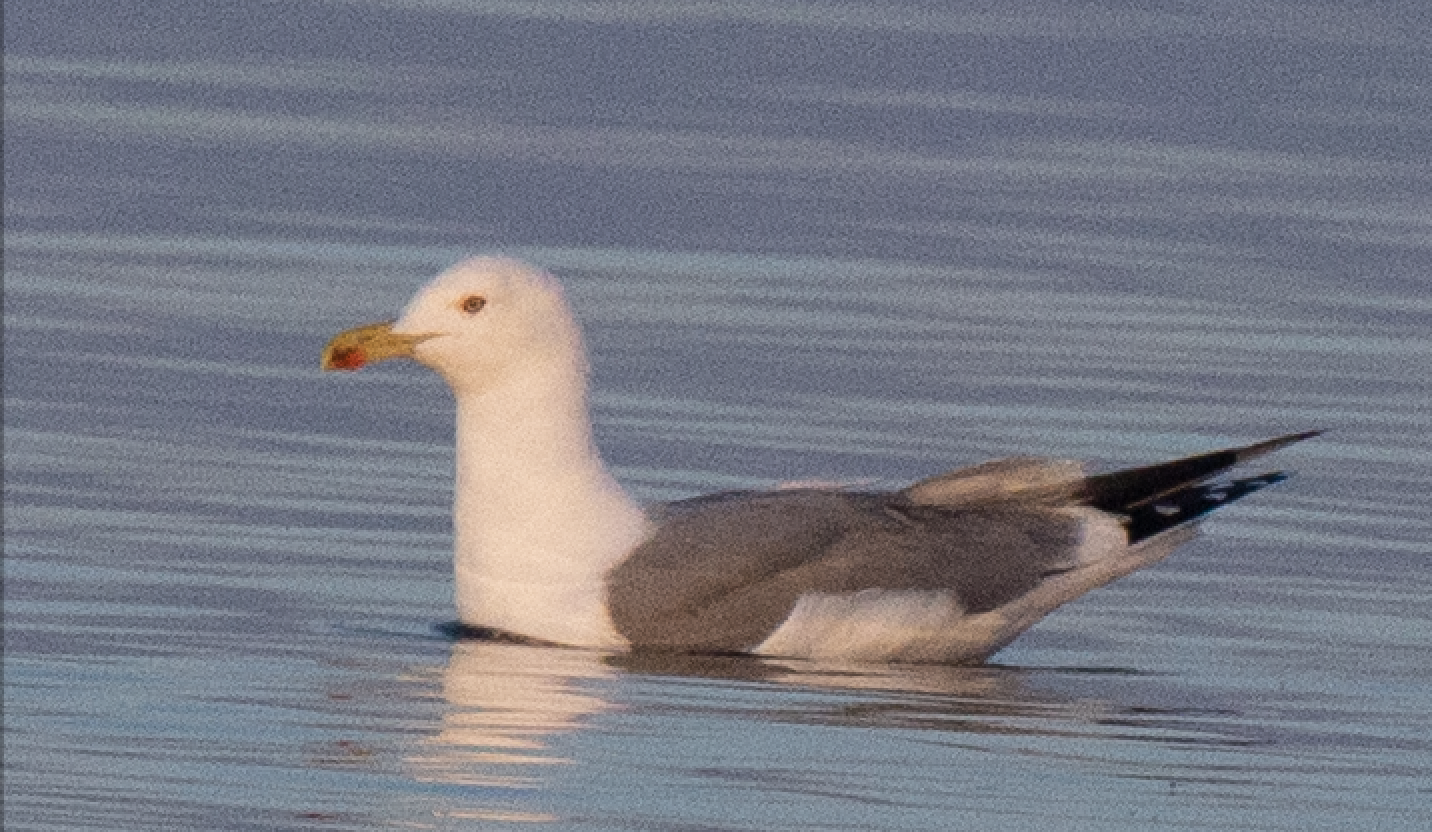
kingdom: Animalia
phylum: Chordata
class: Aves
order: Charadriiformes
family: Laridae
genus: Larus
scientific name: Larus michahellis
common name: Yellow-legged gull
